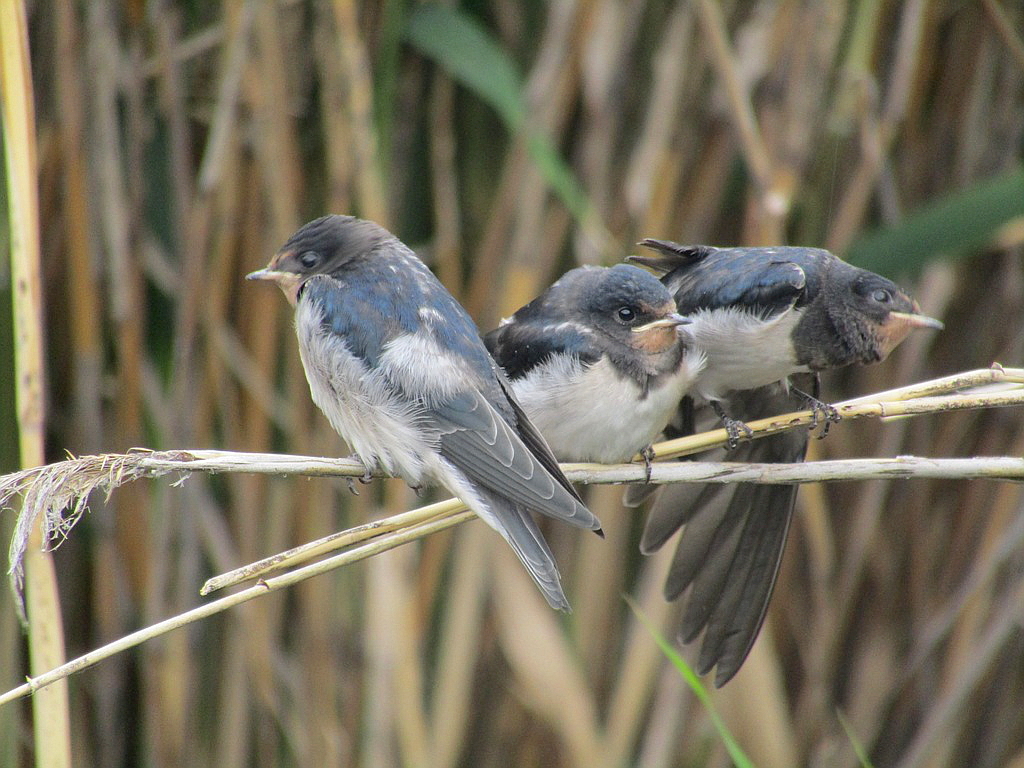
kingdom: Animalia
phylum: Chordata
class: Aves
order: Passeriformes
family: Hirundinidae
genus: Hirundo
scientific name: Hirundo rustica
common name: Barn swallow
